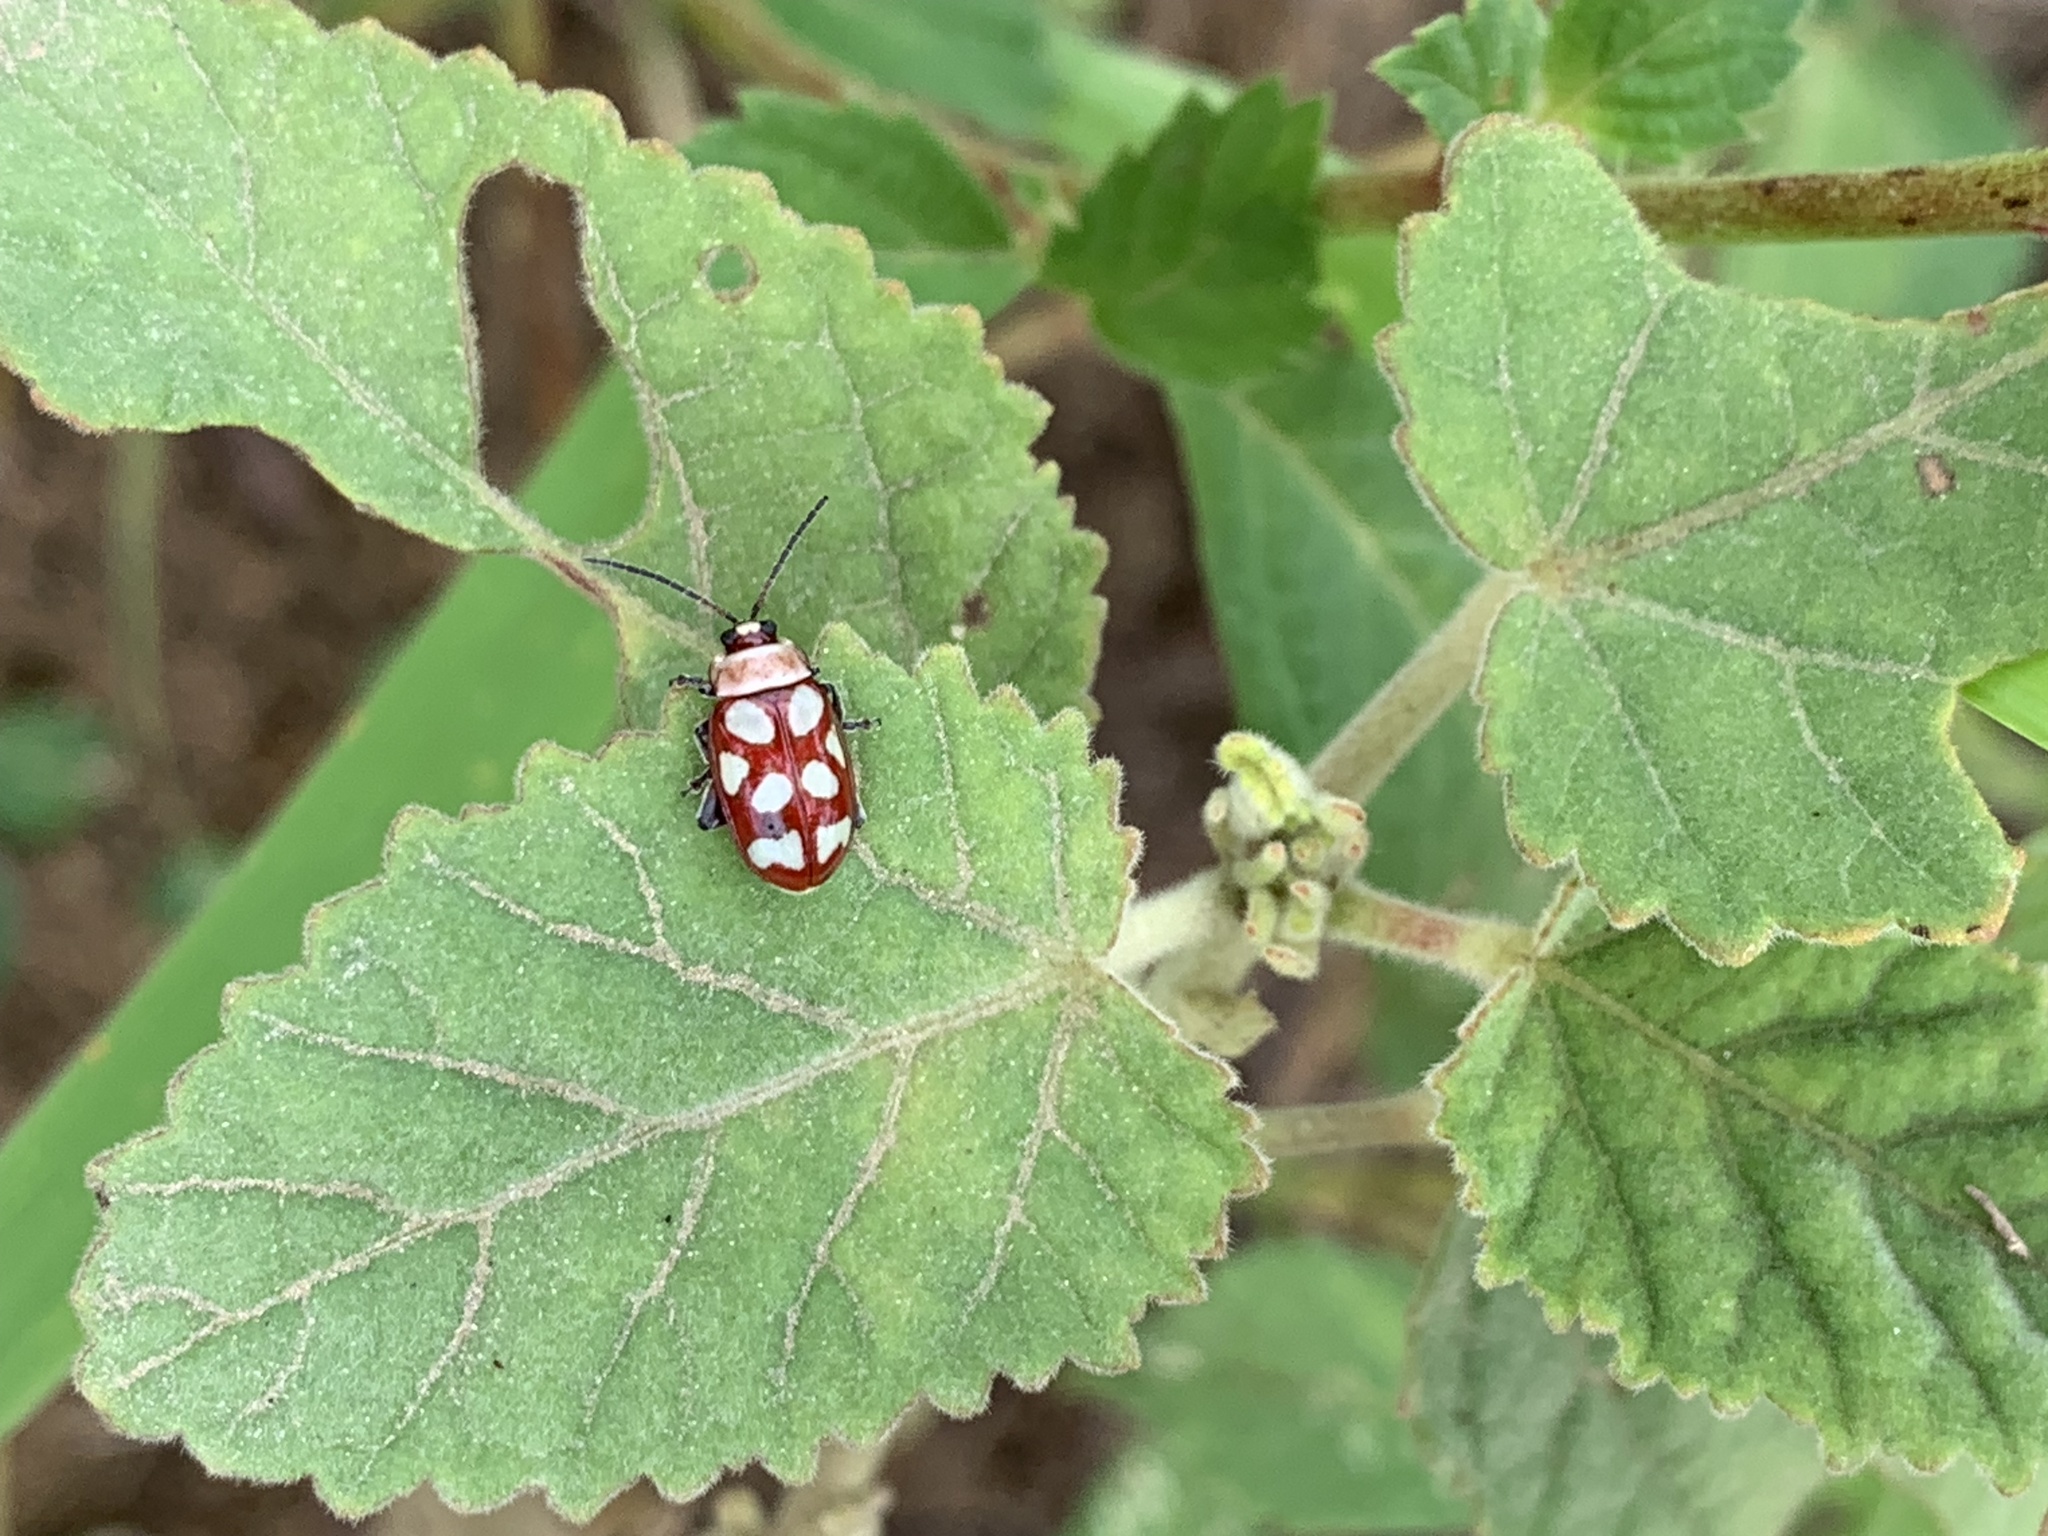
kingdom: Animalia
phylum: Arthropoda
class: Insecta
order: Coleoptera
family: Chrysomelidae
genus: Omophoita
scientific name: Omophoita
